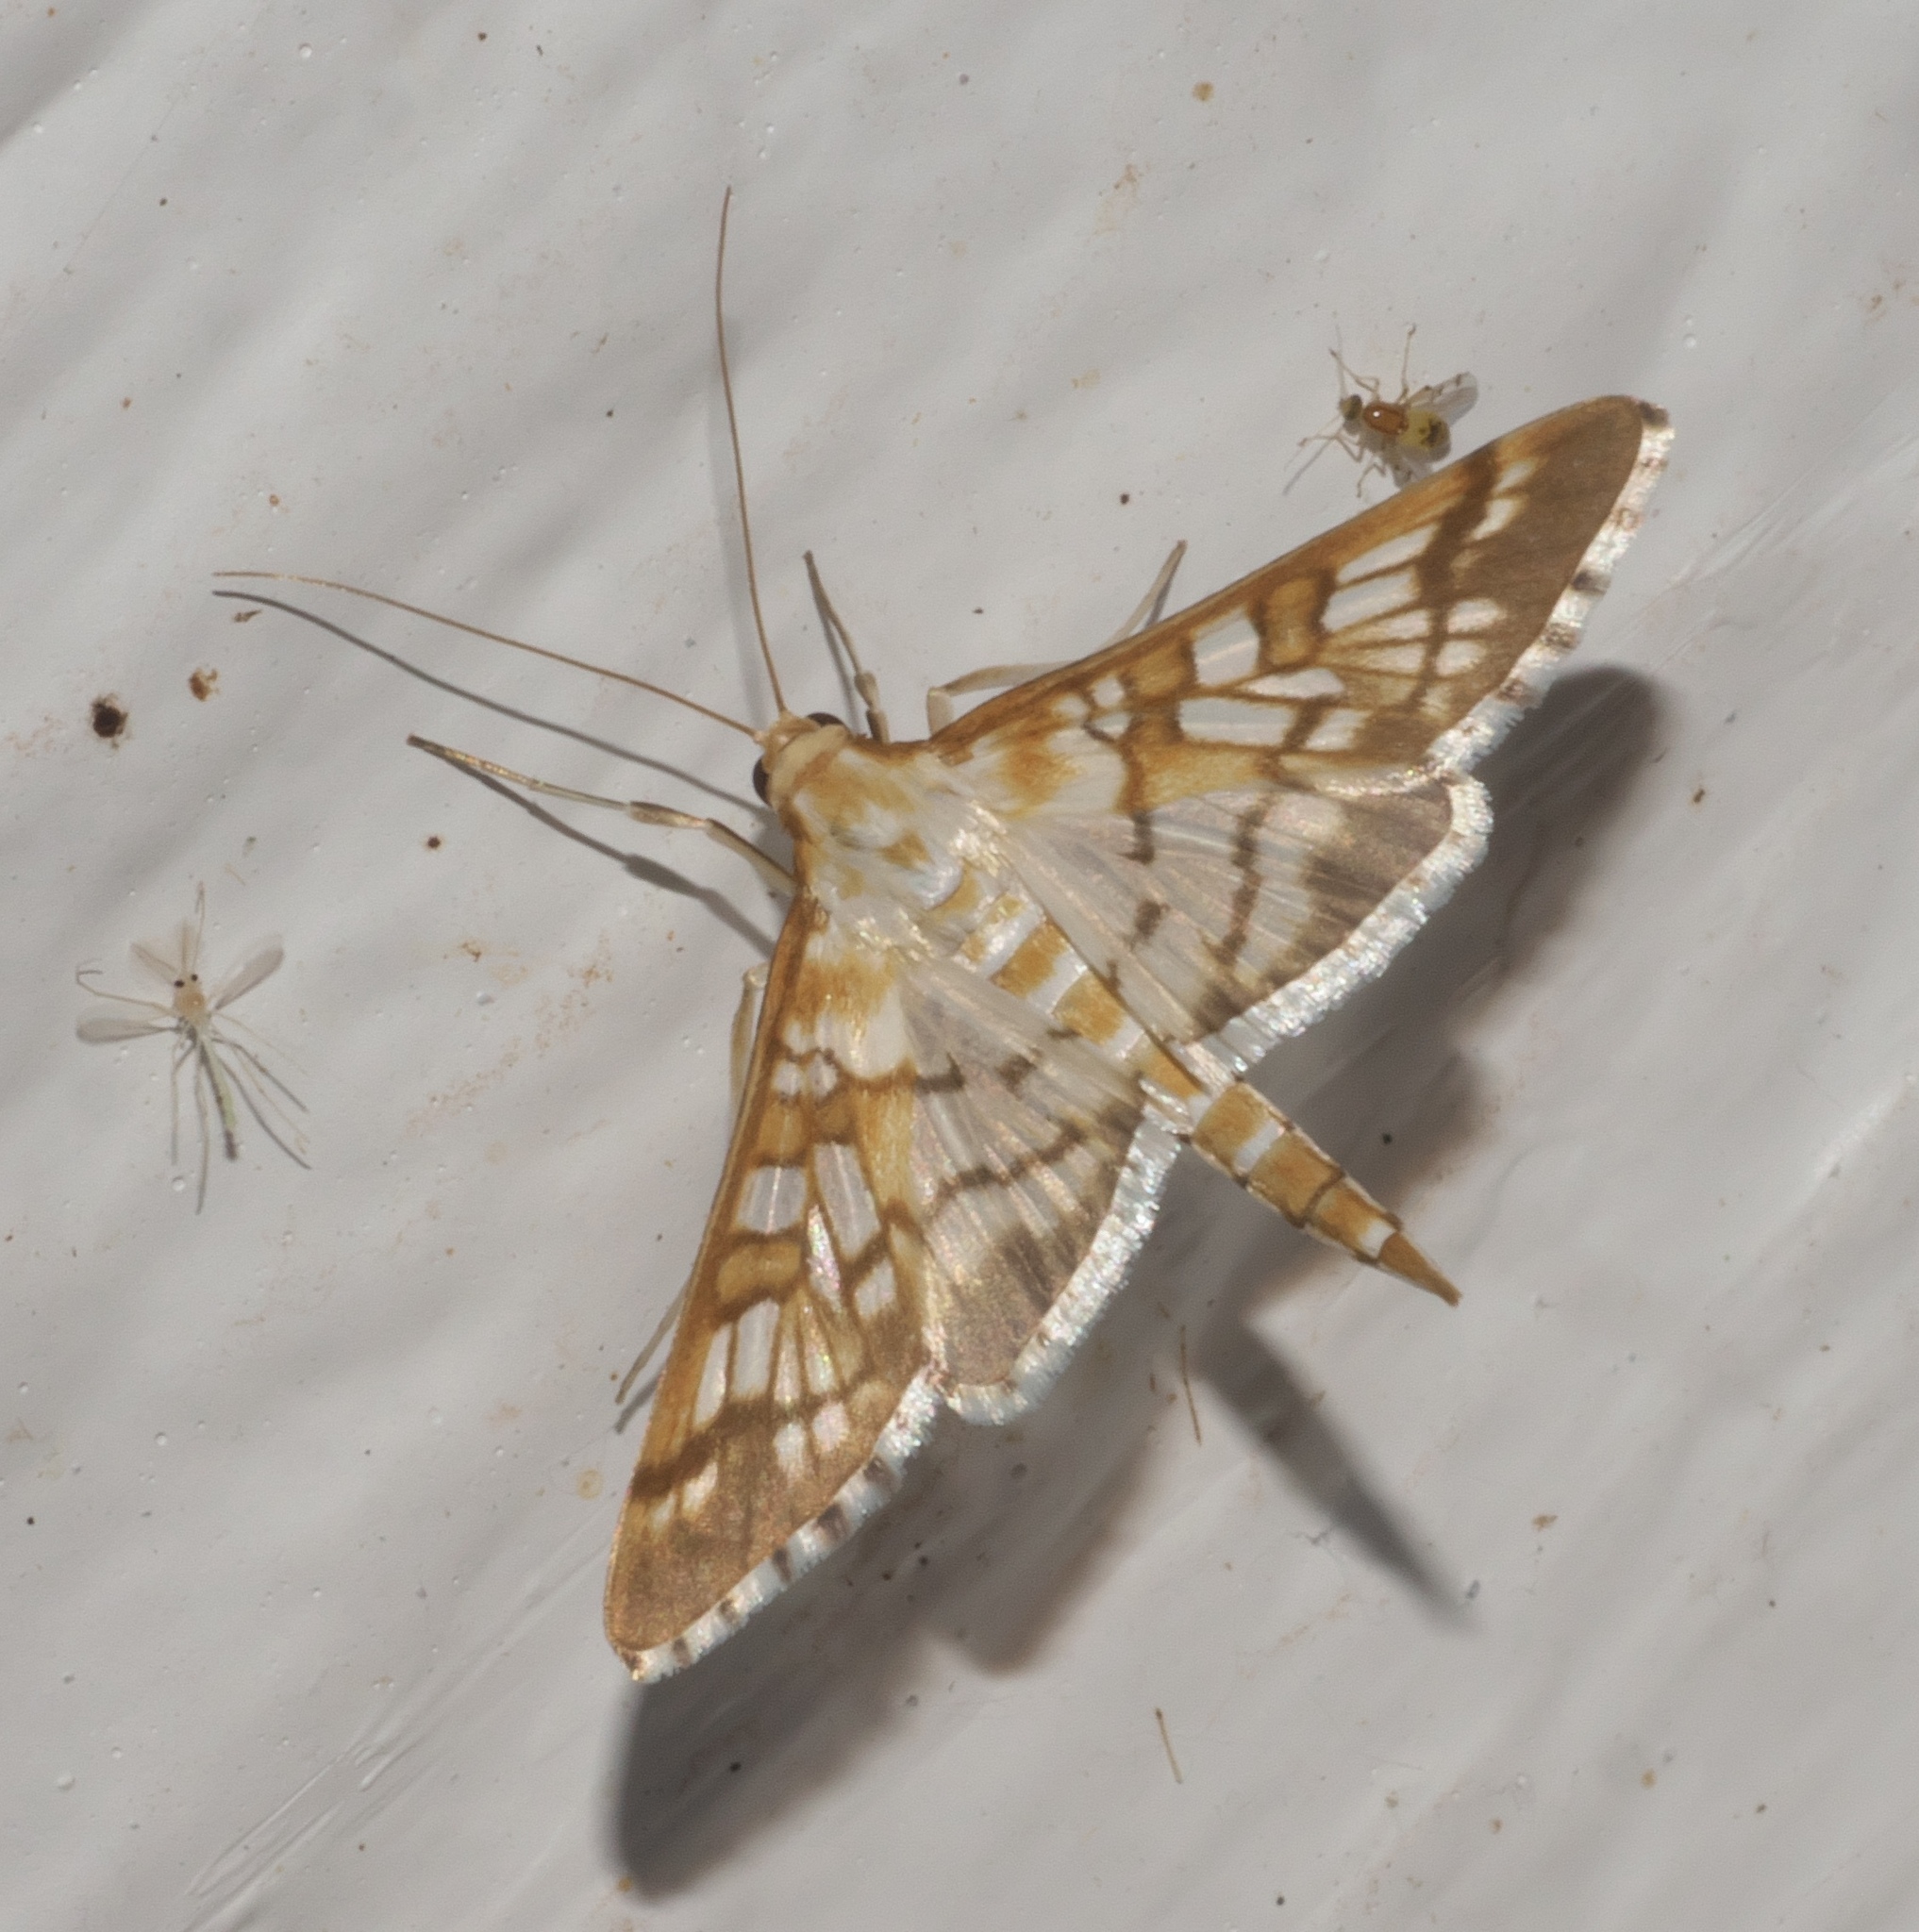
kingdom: Animalia
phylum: Arthropoda
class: Insecta
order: Lepidoptera
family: Crambidae
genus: Epipagis
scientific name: Epipagis fenestralis
